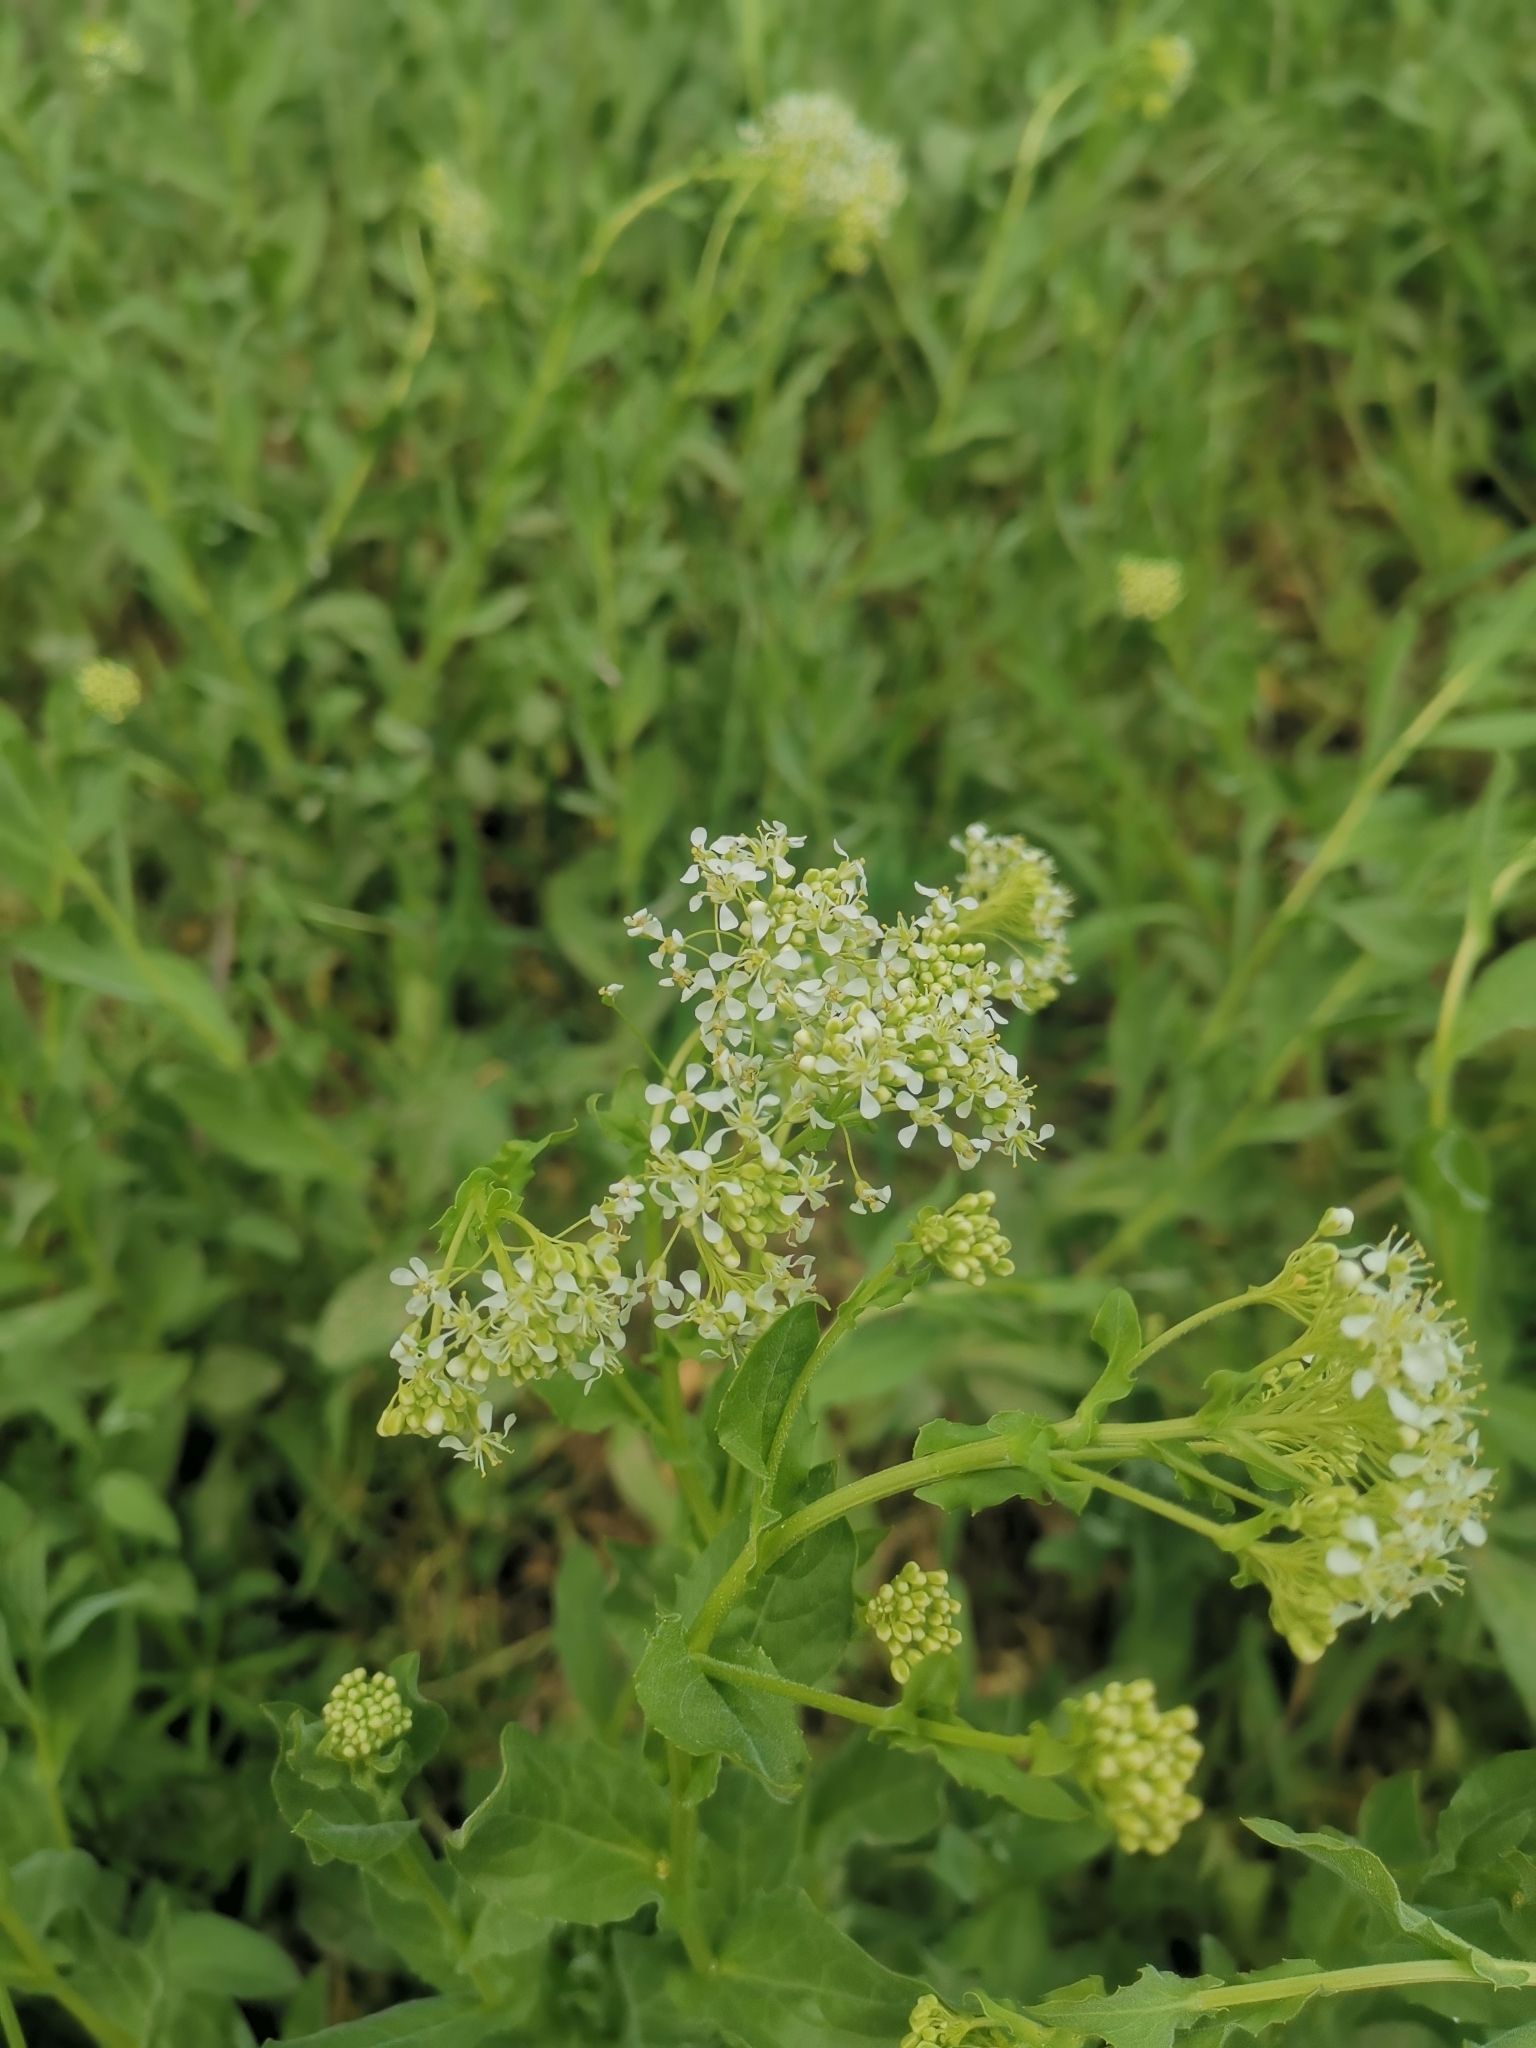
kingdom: Plantae
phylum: Tracheophyta
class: Magnoliopsida
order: Brassicales
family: Brassicaceae
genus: Lepidium
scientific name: Lepidium draba
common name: Hoary cress
